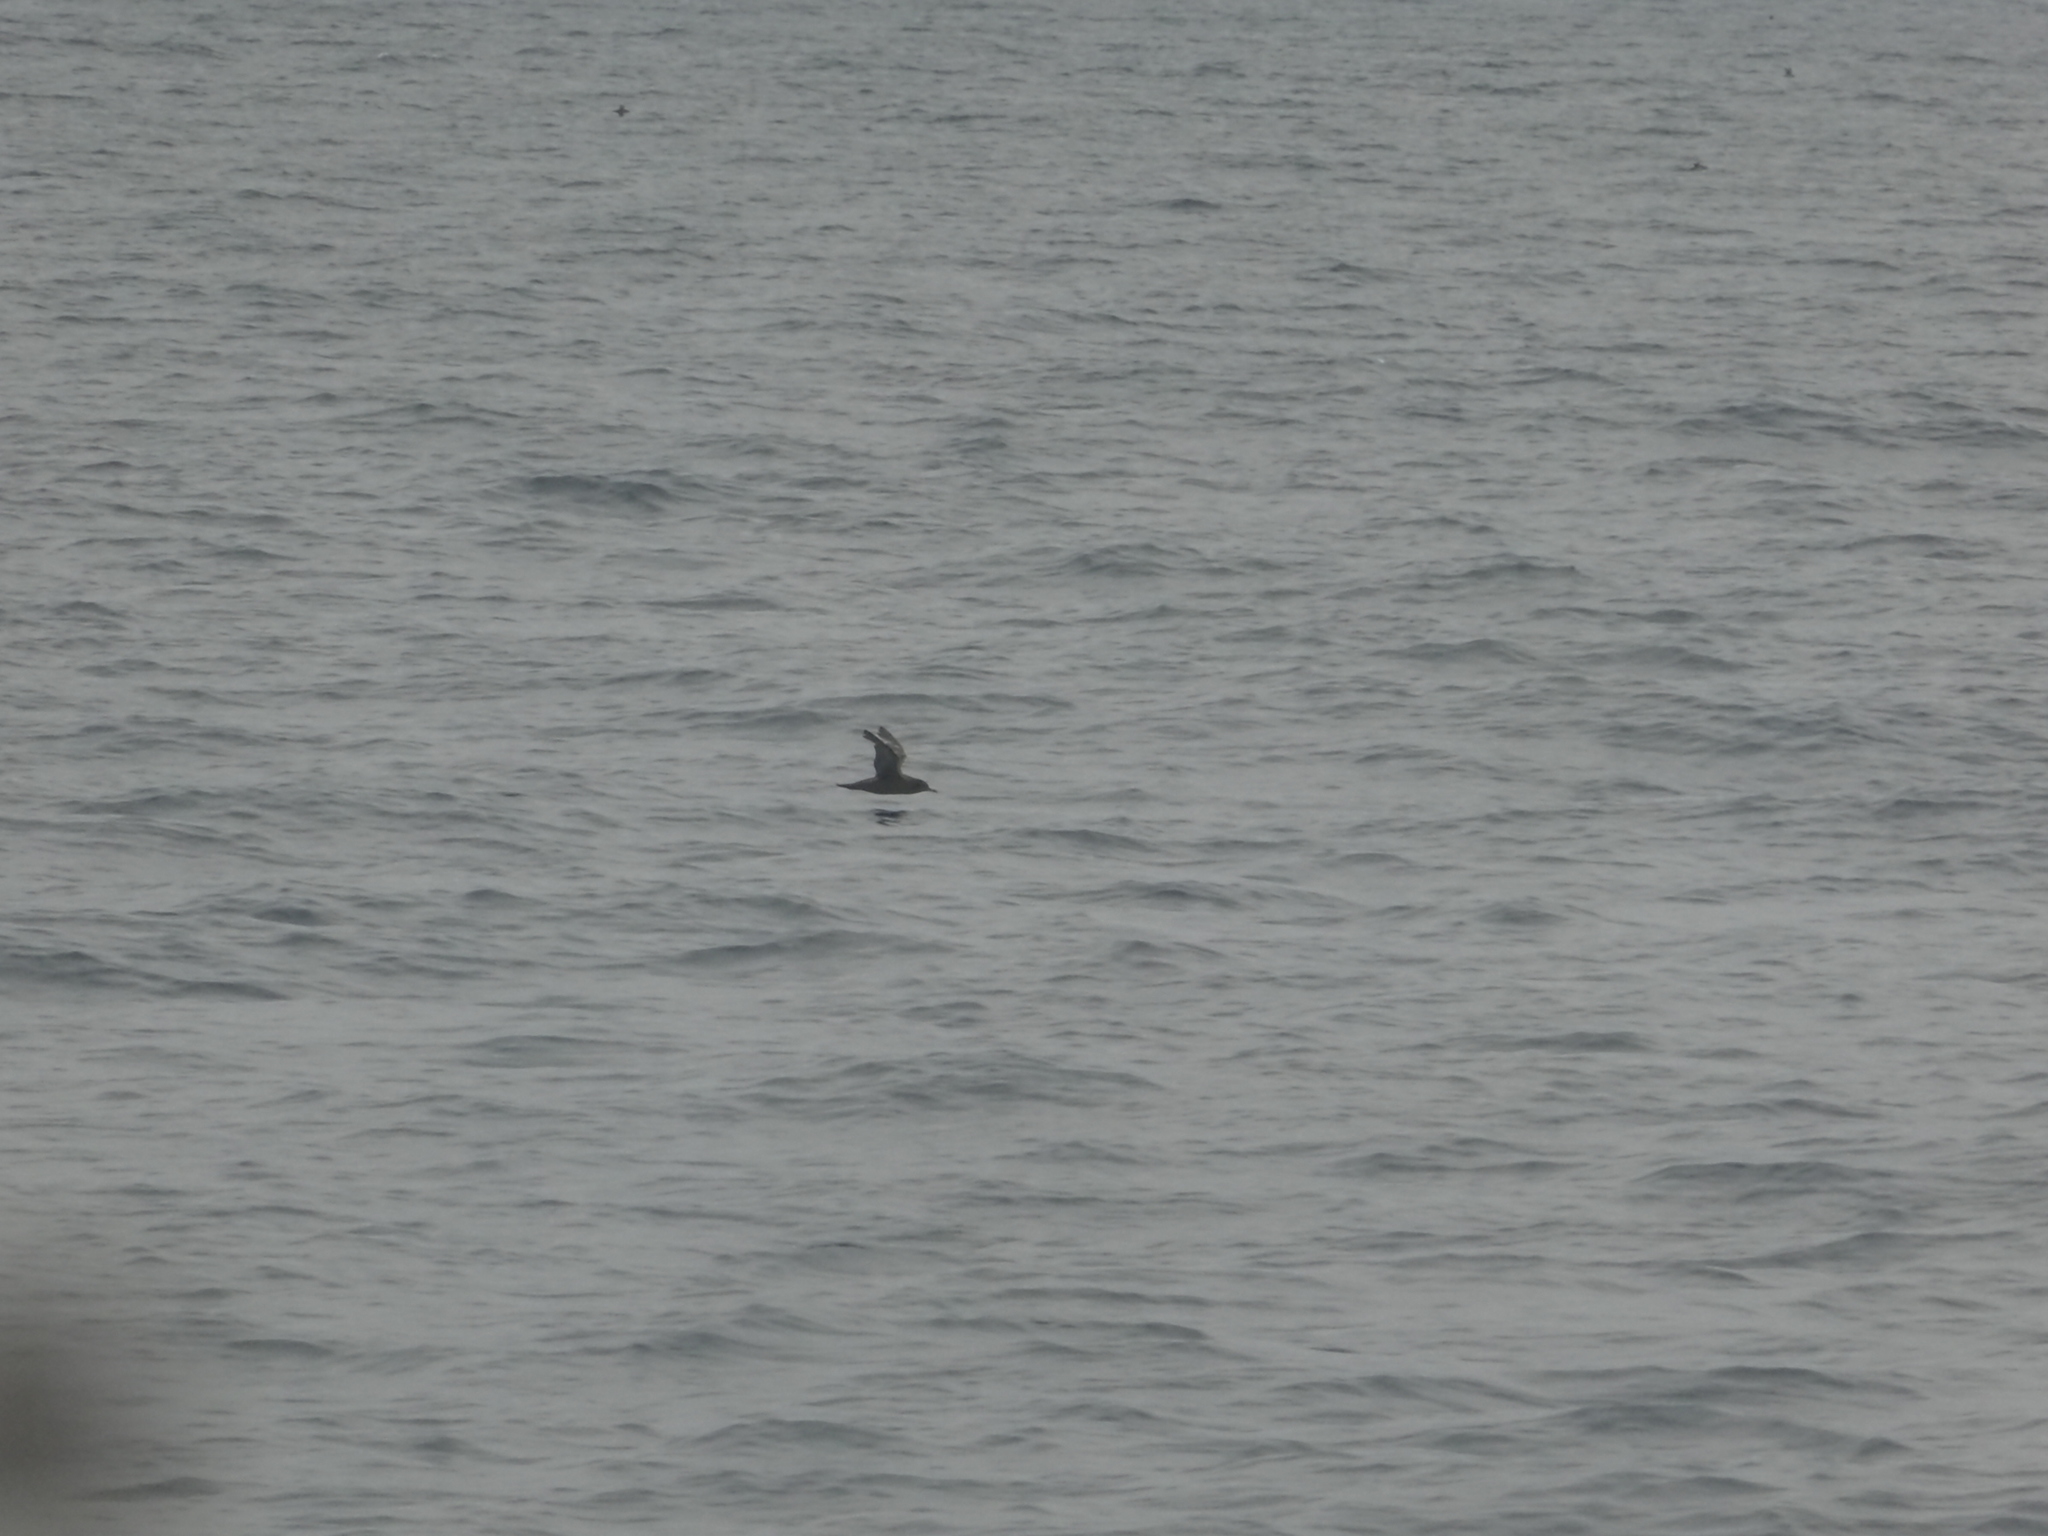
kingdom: Animalia
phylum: Chordata
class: Aves
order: Procellariiformes
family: Procellariidae
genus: Puffinus
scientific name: Puffinus griseus
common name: Sooty shearwater
